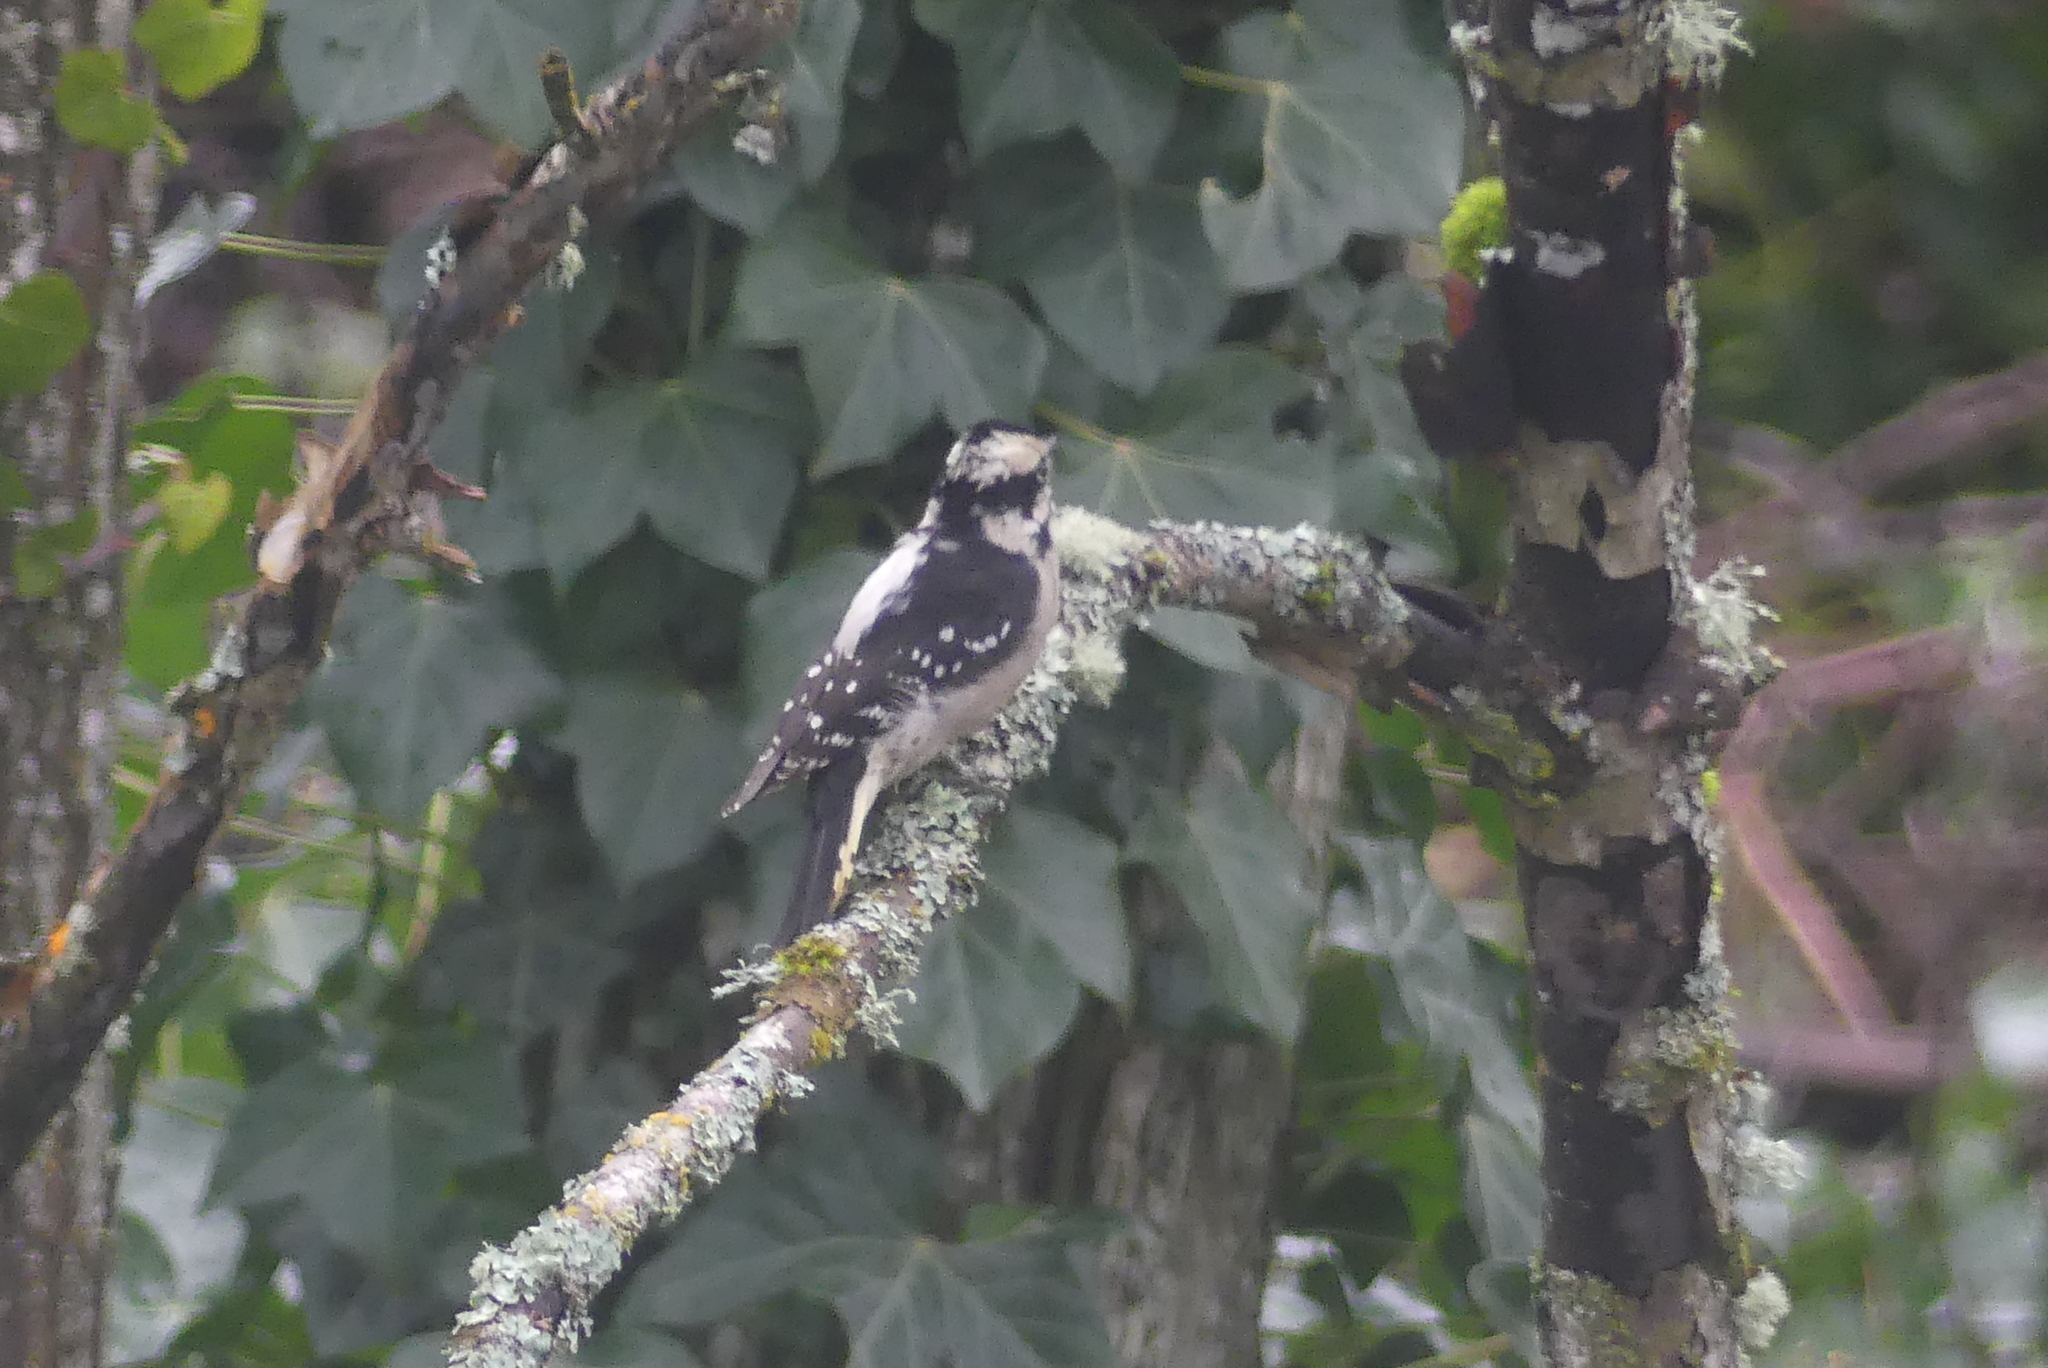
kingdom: Animalia
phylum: Chordata
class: Aves
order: Piciformes
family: Picidae
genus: Dryobates
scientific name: Dryobates pubescens
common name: Downy woodpecker
